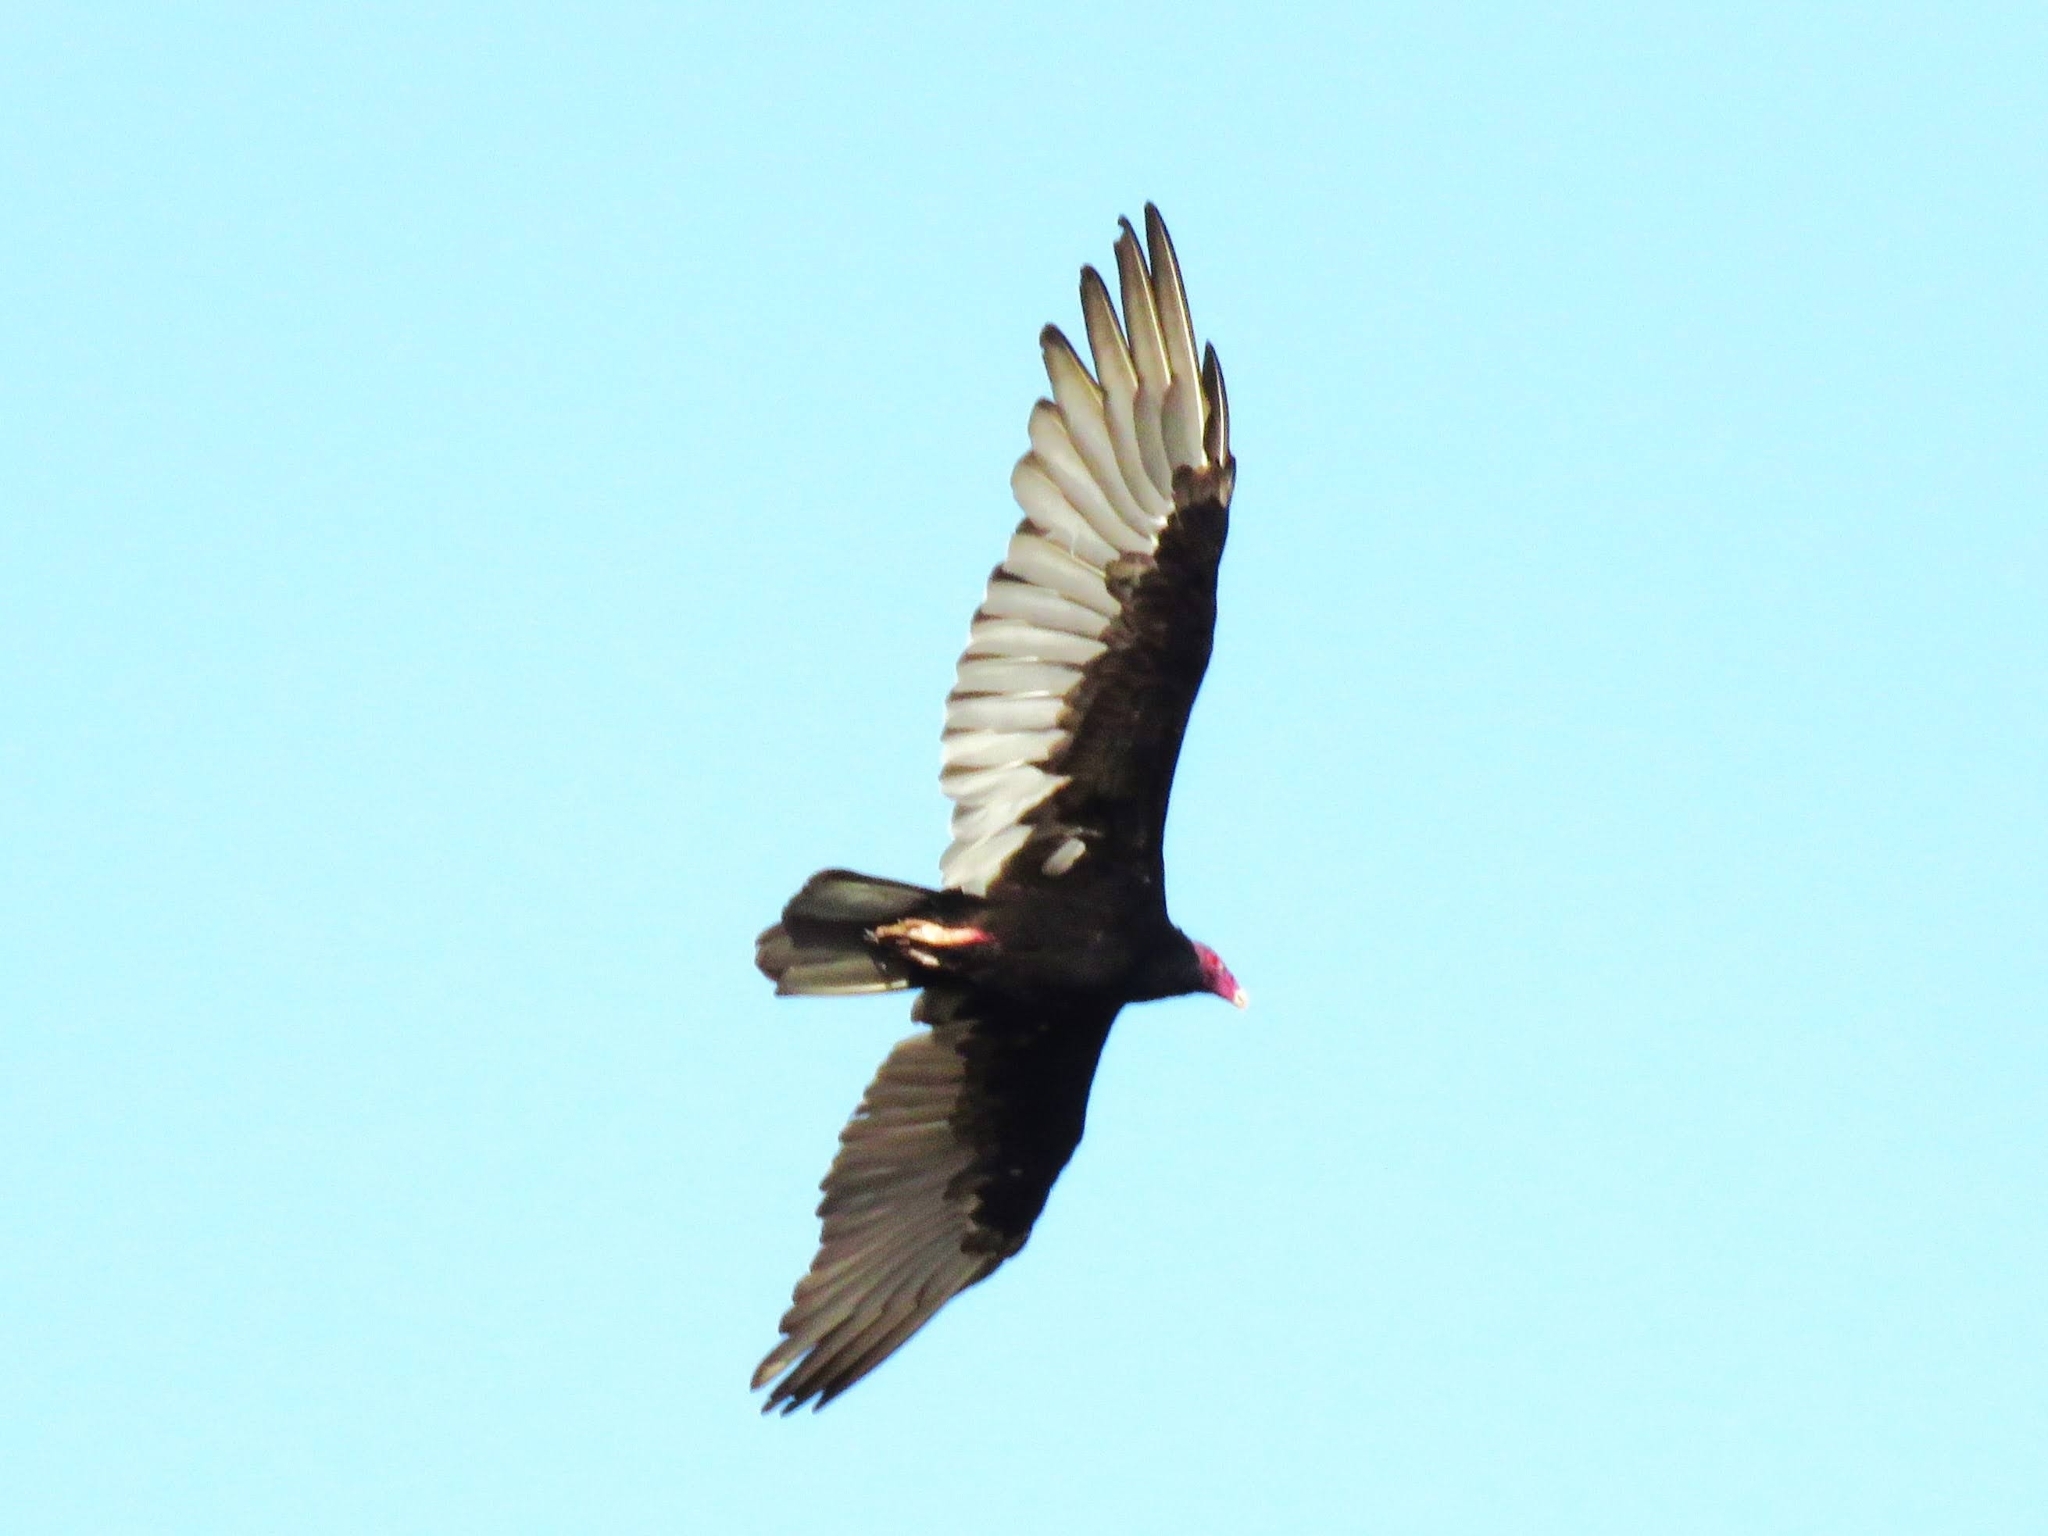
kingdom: Animalia
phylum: Chordata
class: Aves
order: Accipitriformes
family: Cathartidae
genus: Cathartes
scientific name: Cathartes aura
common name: Turkey vulture
